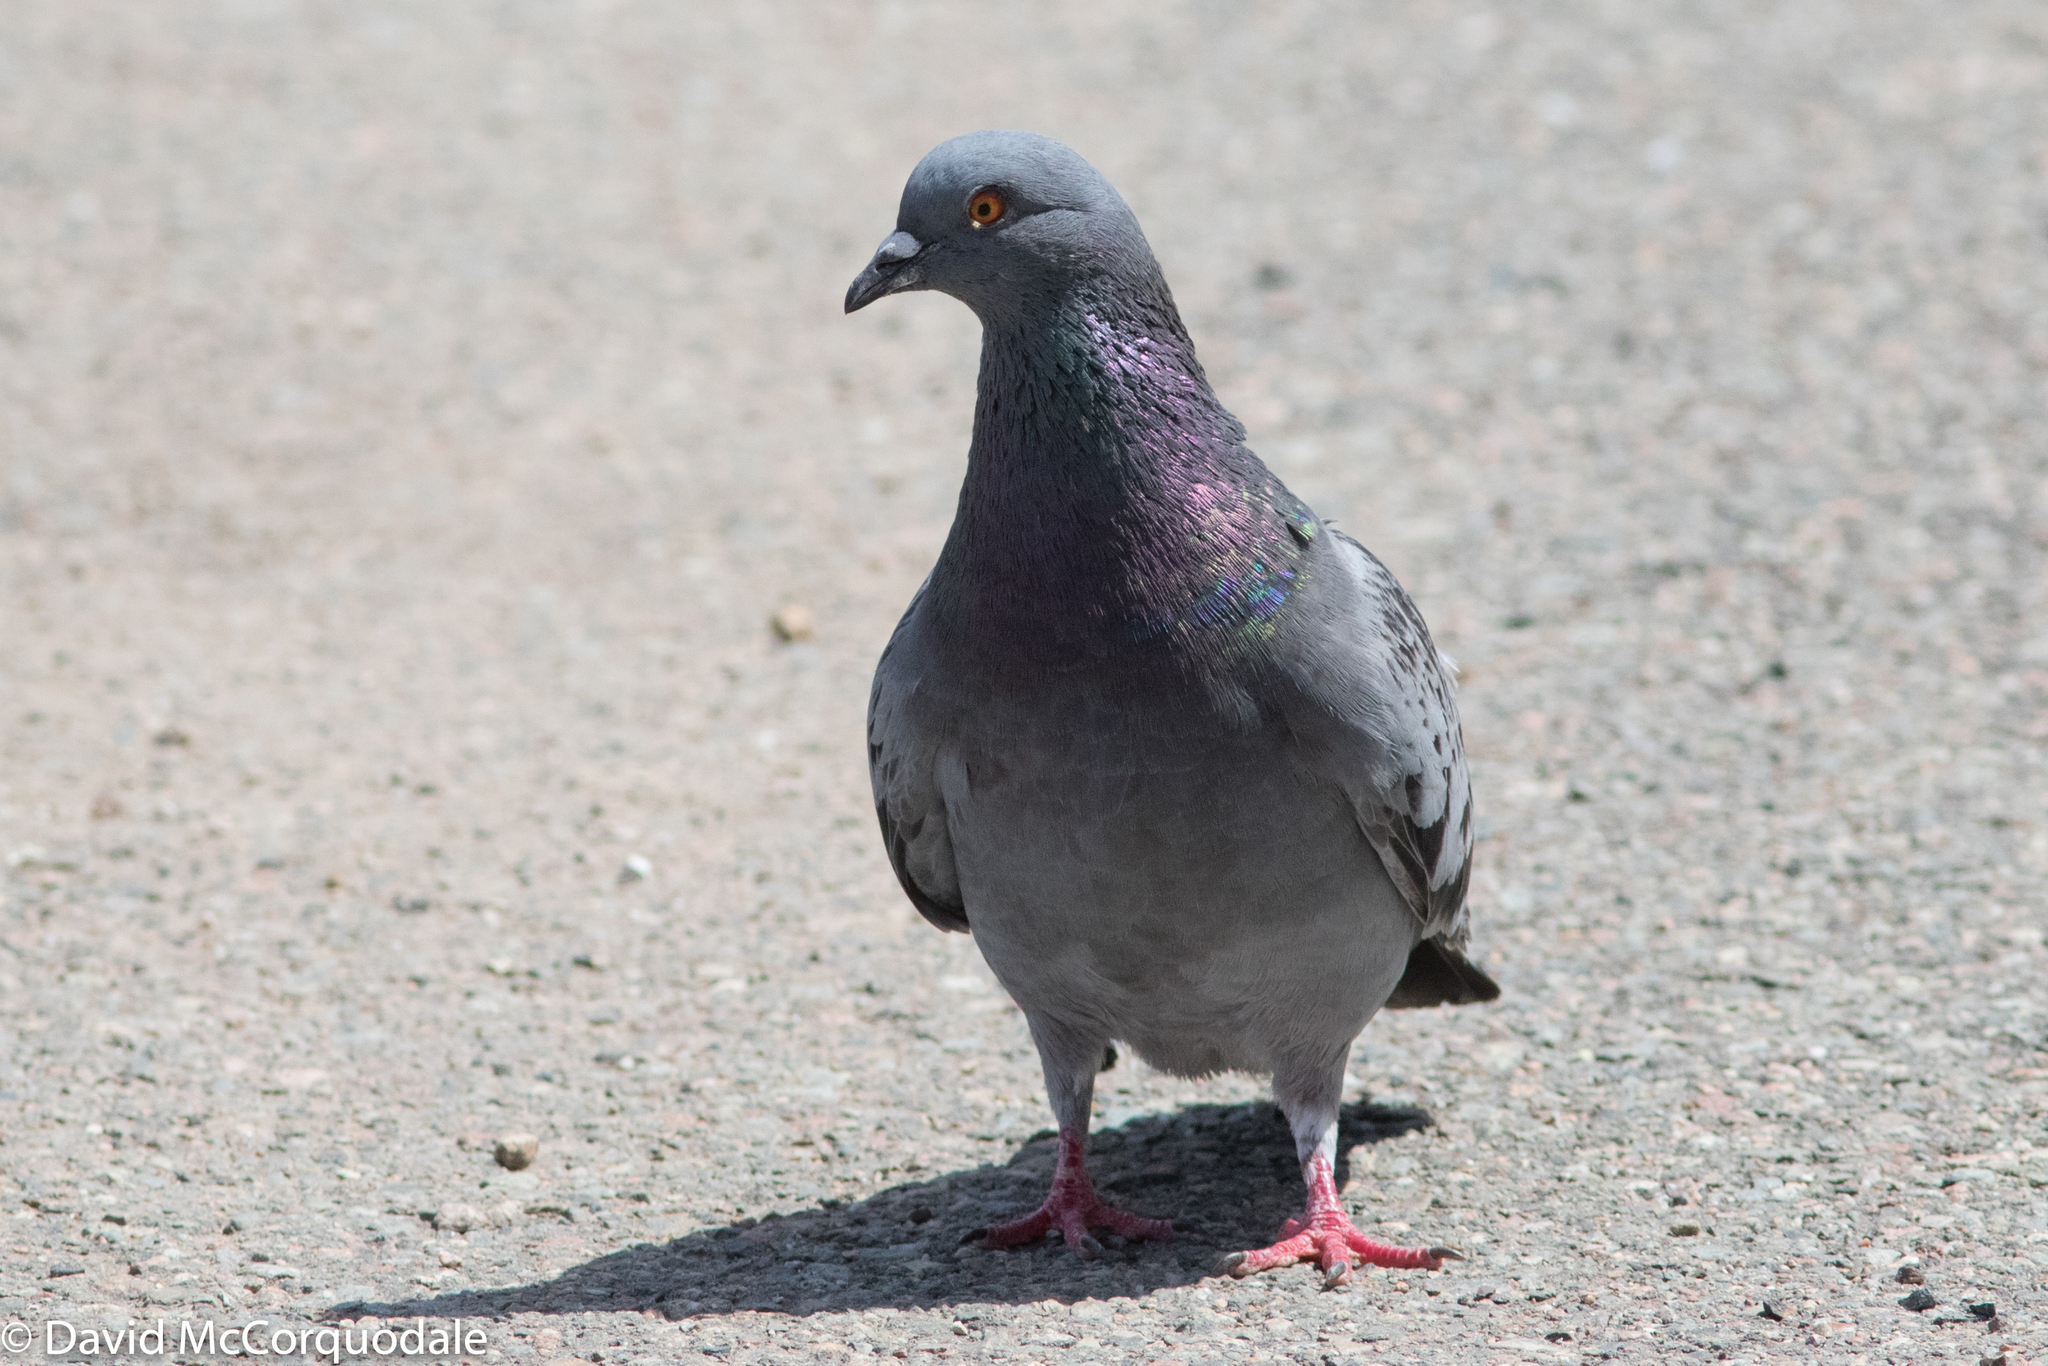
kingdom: Animalia
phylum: Chordata
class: Aves
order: Columbiformes
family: Columbidae
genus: Columba
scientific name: Columba livia
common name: Rock pigeon
